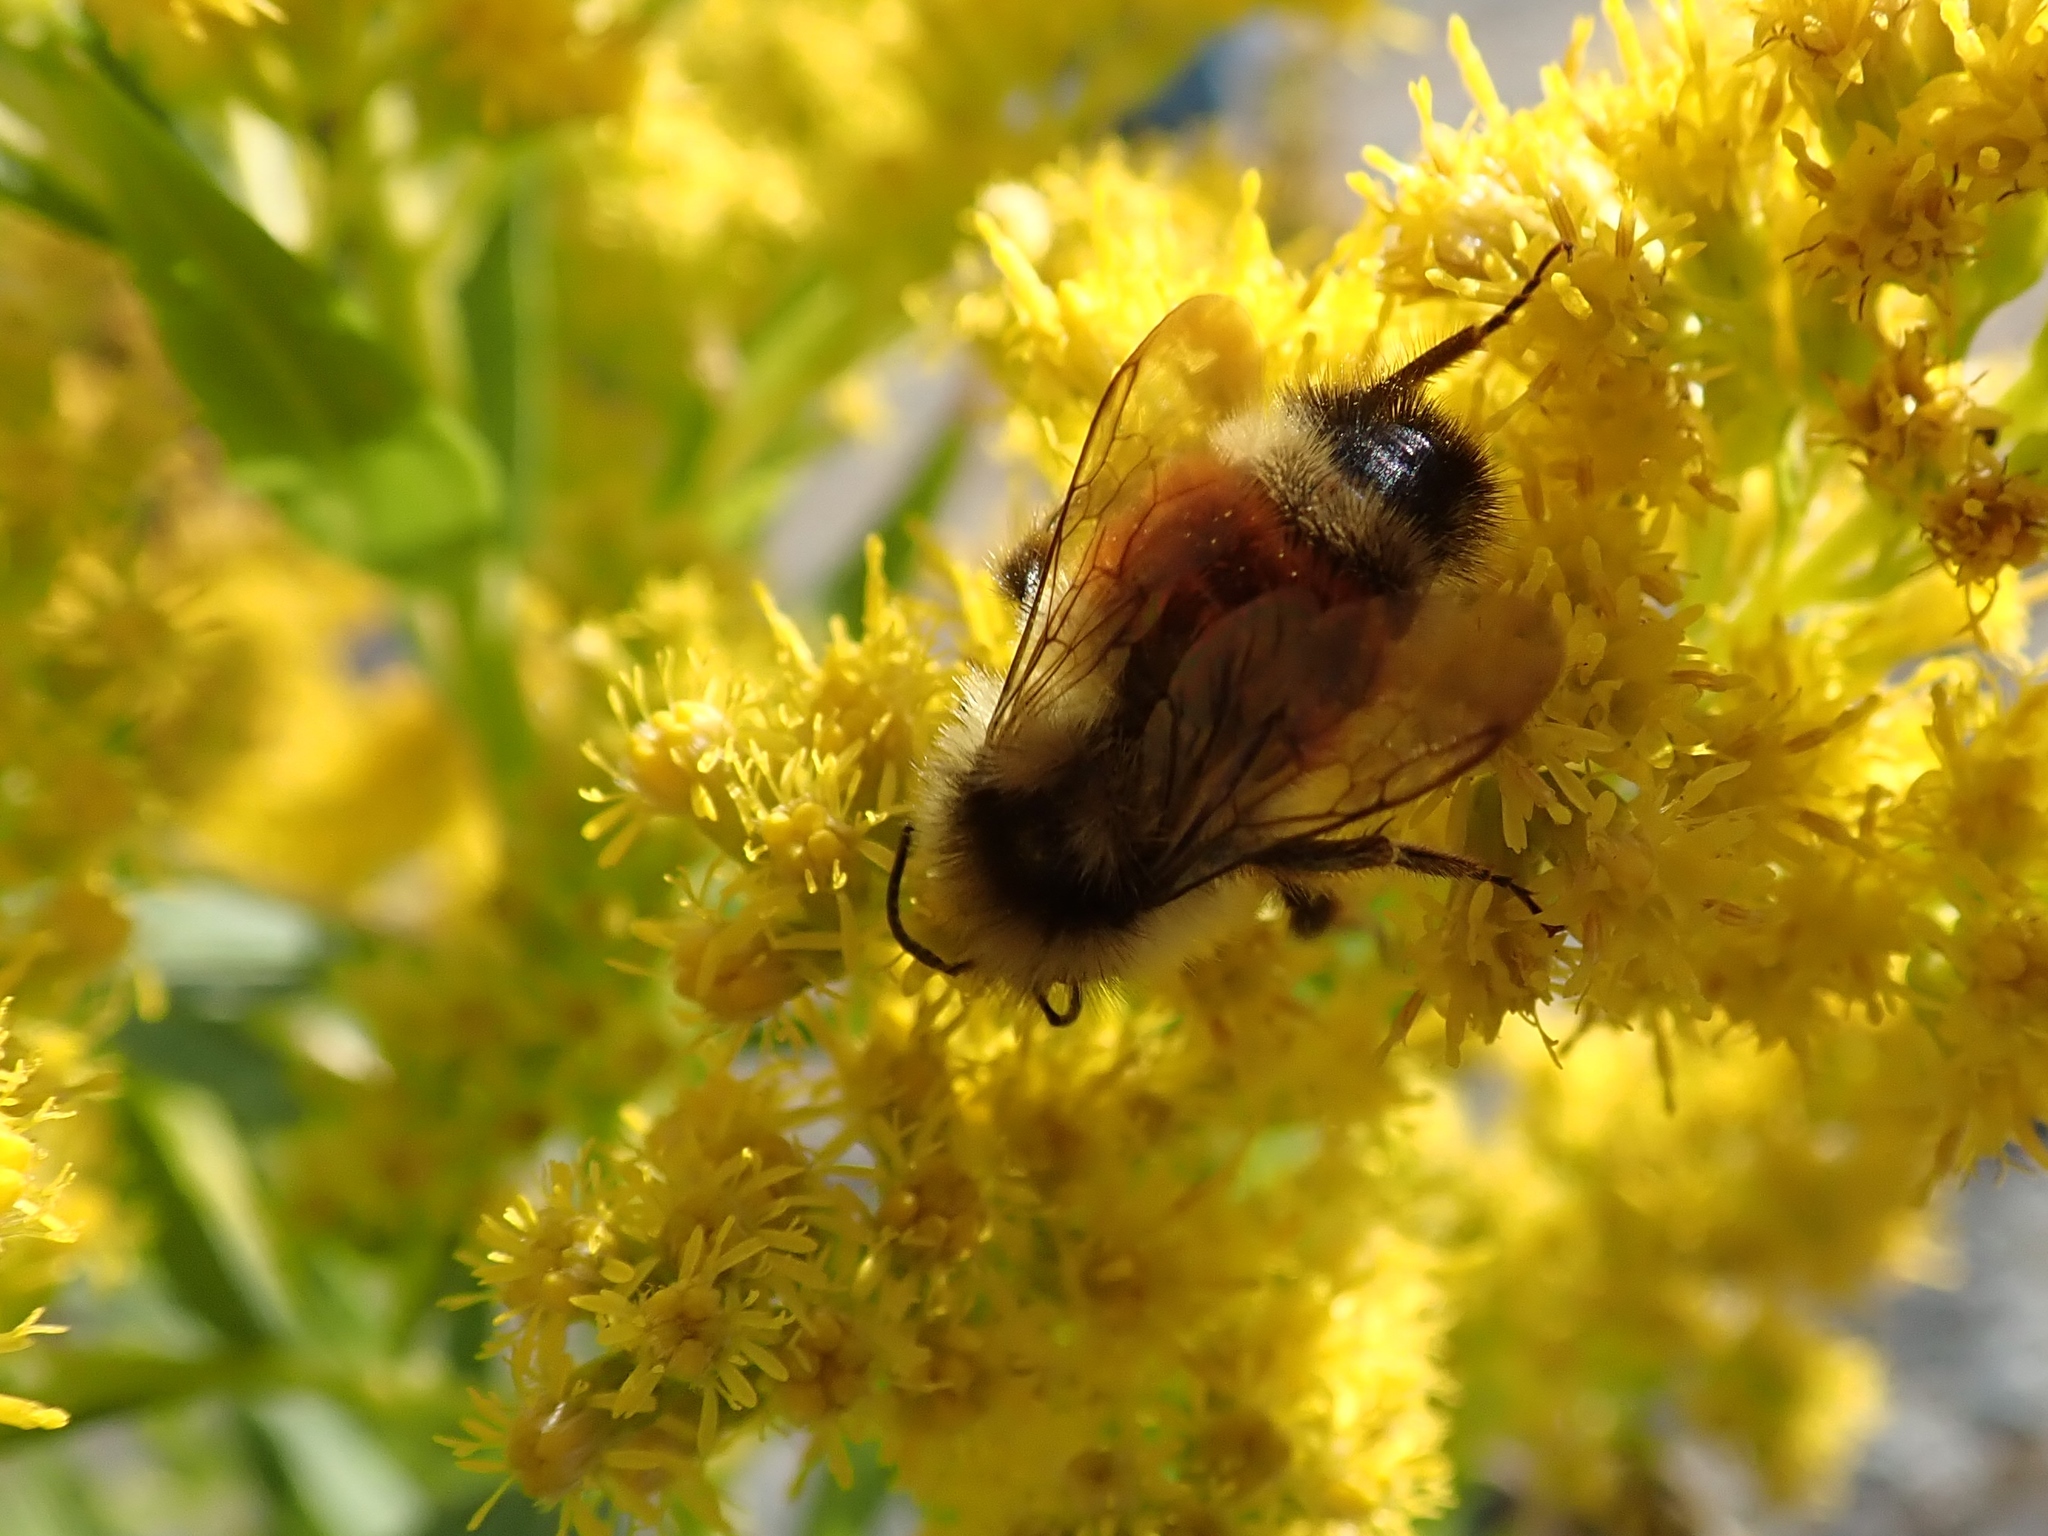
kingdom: Animalia
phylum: Arthropoda
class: Insecta
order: Hymenoptera
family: Apidae
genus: Bombus
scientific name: Bombus ternarius
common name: Tri-colored bumble bee
